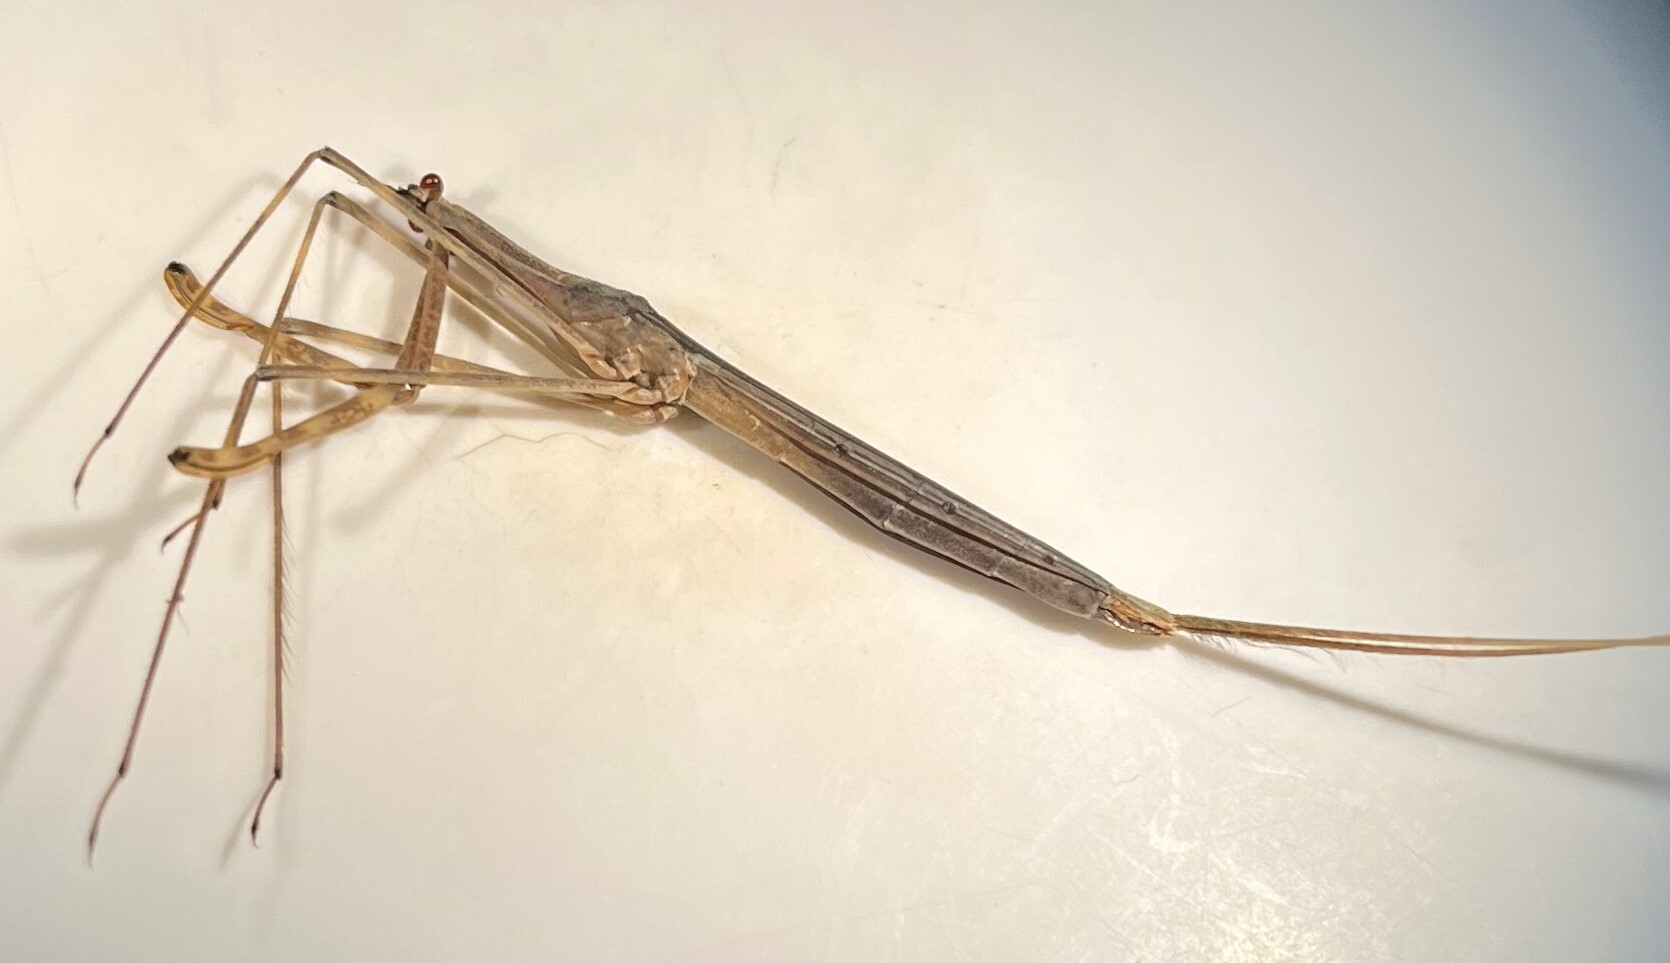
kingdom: Animalia
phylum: Arthropoda
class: Insecta
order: Hemiptera
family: Nepidae
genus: Ranatra
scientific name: Ranatra australis
